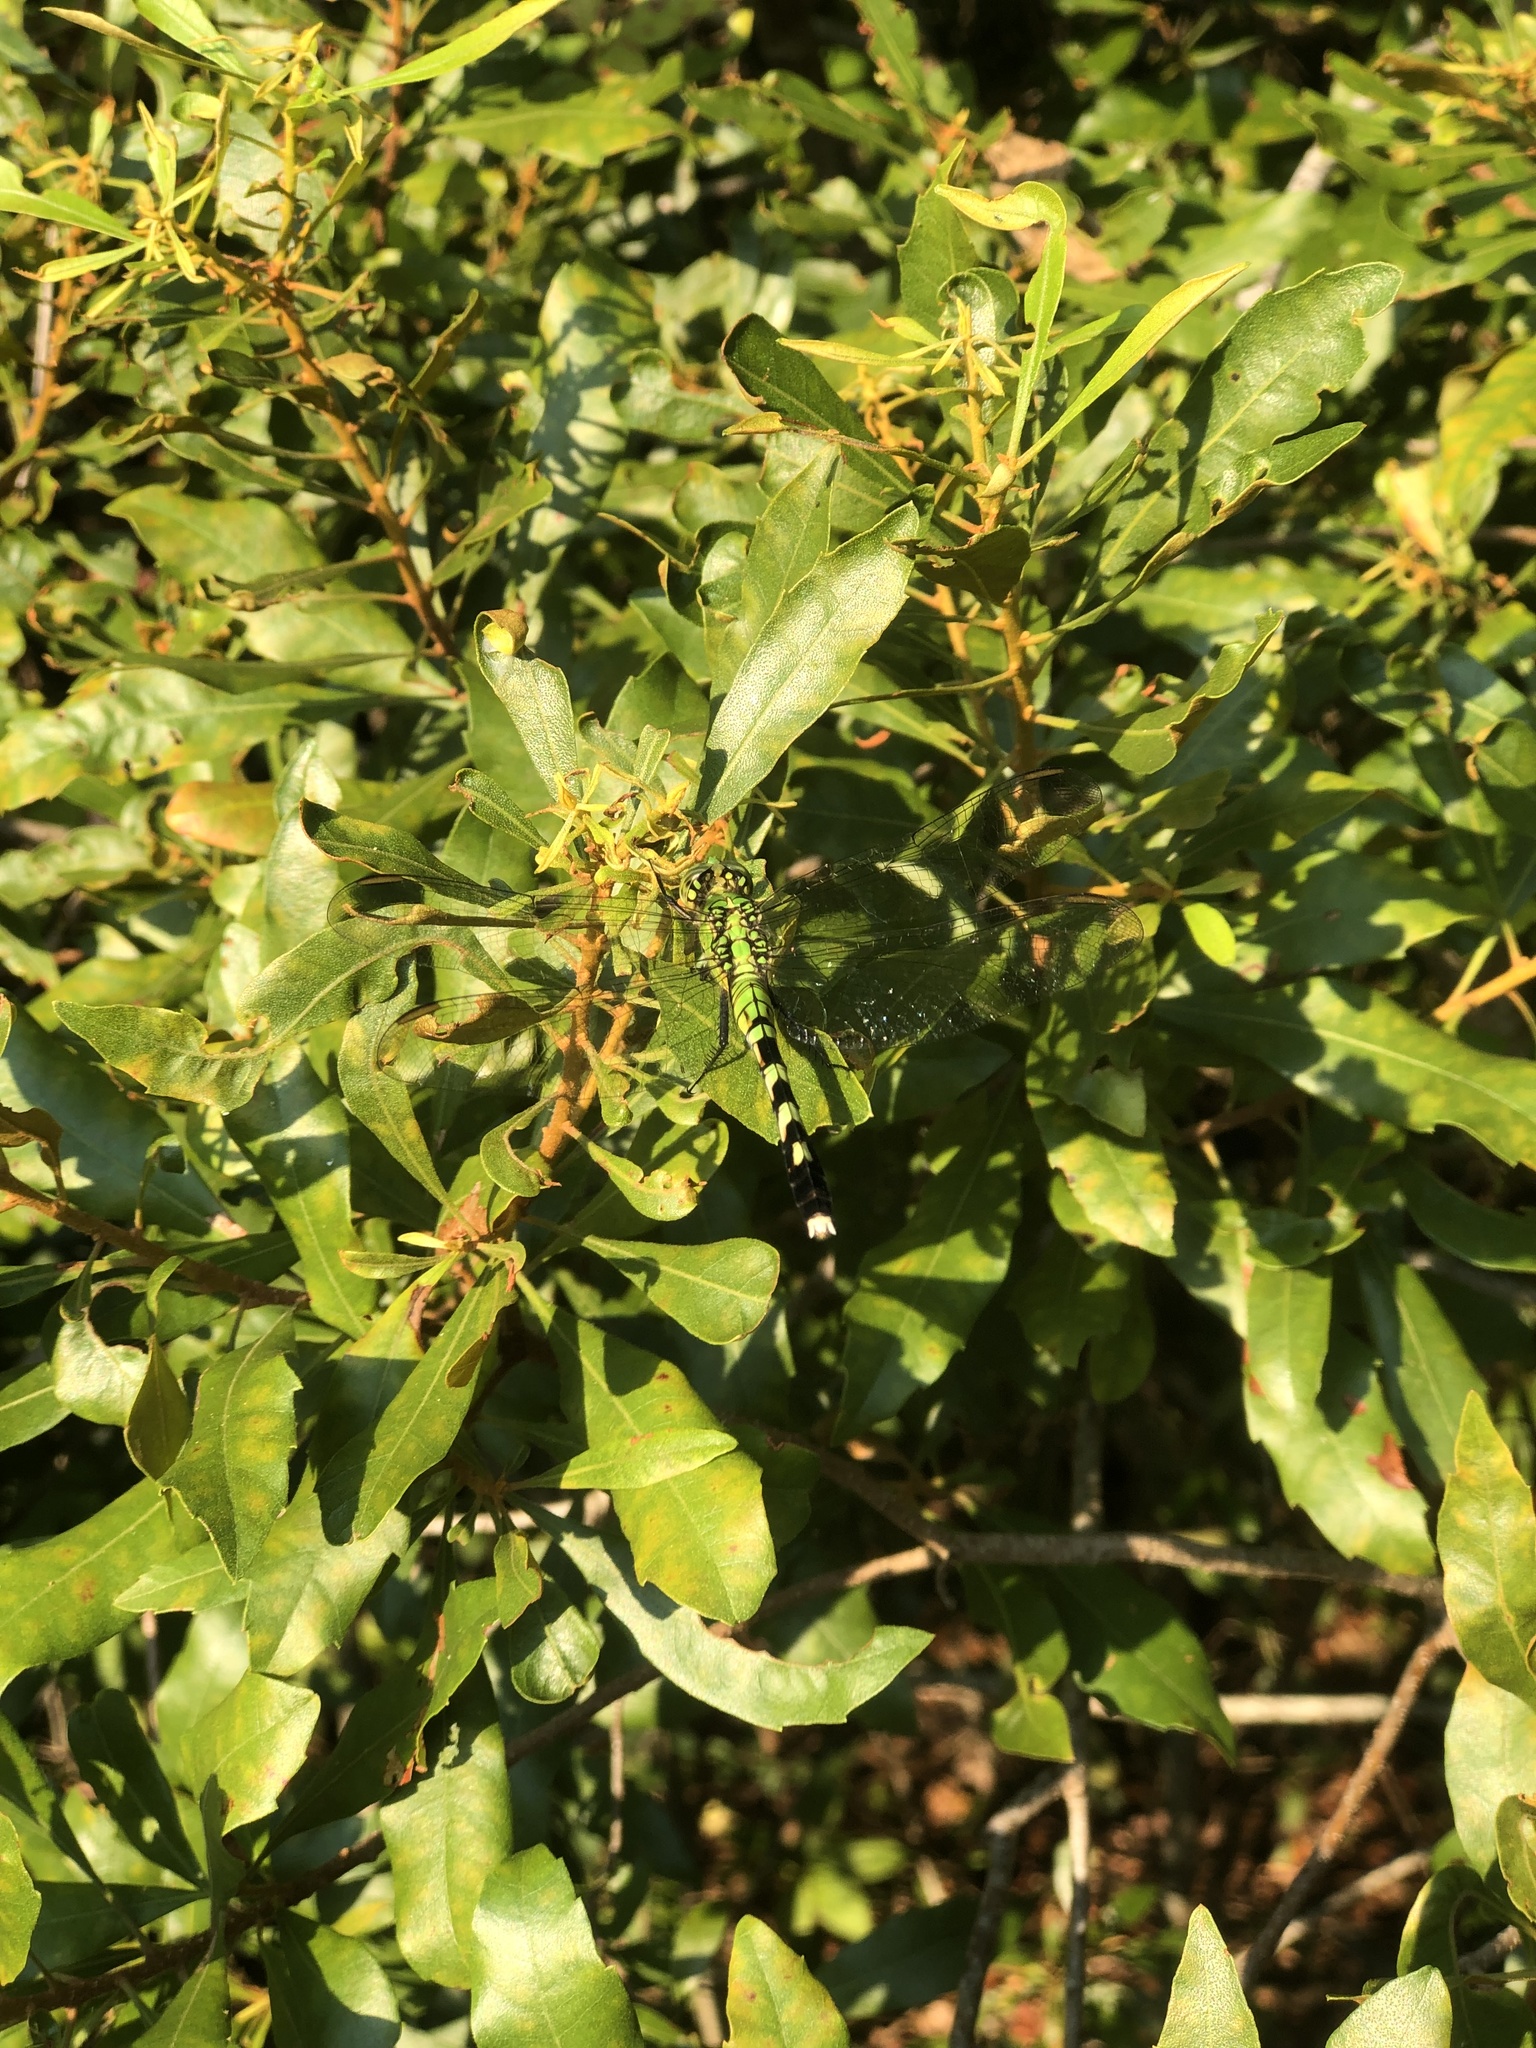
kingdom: Animalia
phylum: Arthropoda
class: Insecta
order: Odonata
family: Libellulidae
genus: Erythemis
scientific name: Erythemis simplicicollis
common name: Eastern pondhawk
